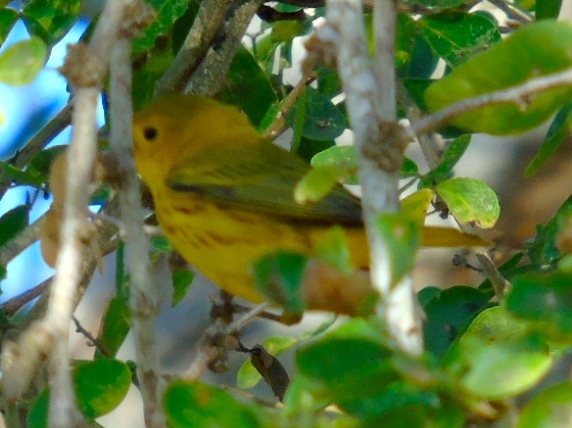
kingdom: Animalia
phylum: Chordata
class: Aves
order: Passeriformes
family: Parulidae
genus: Setophaga
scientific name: Setophaga petechia
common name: Yellow warbler
